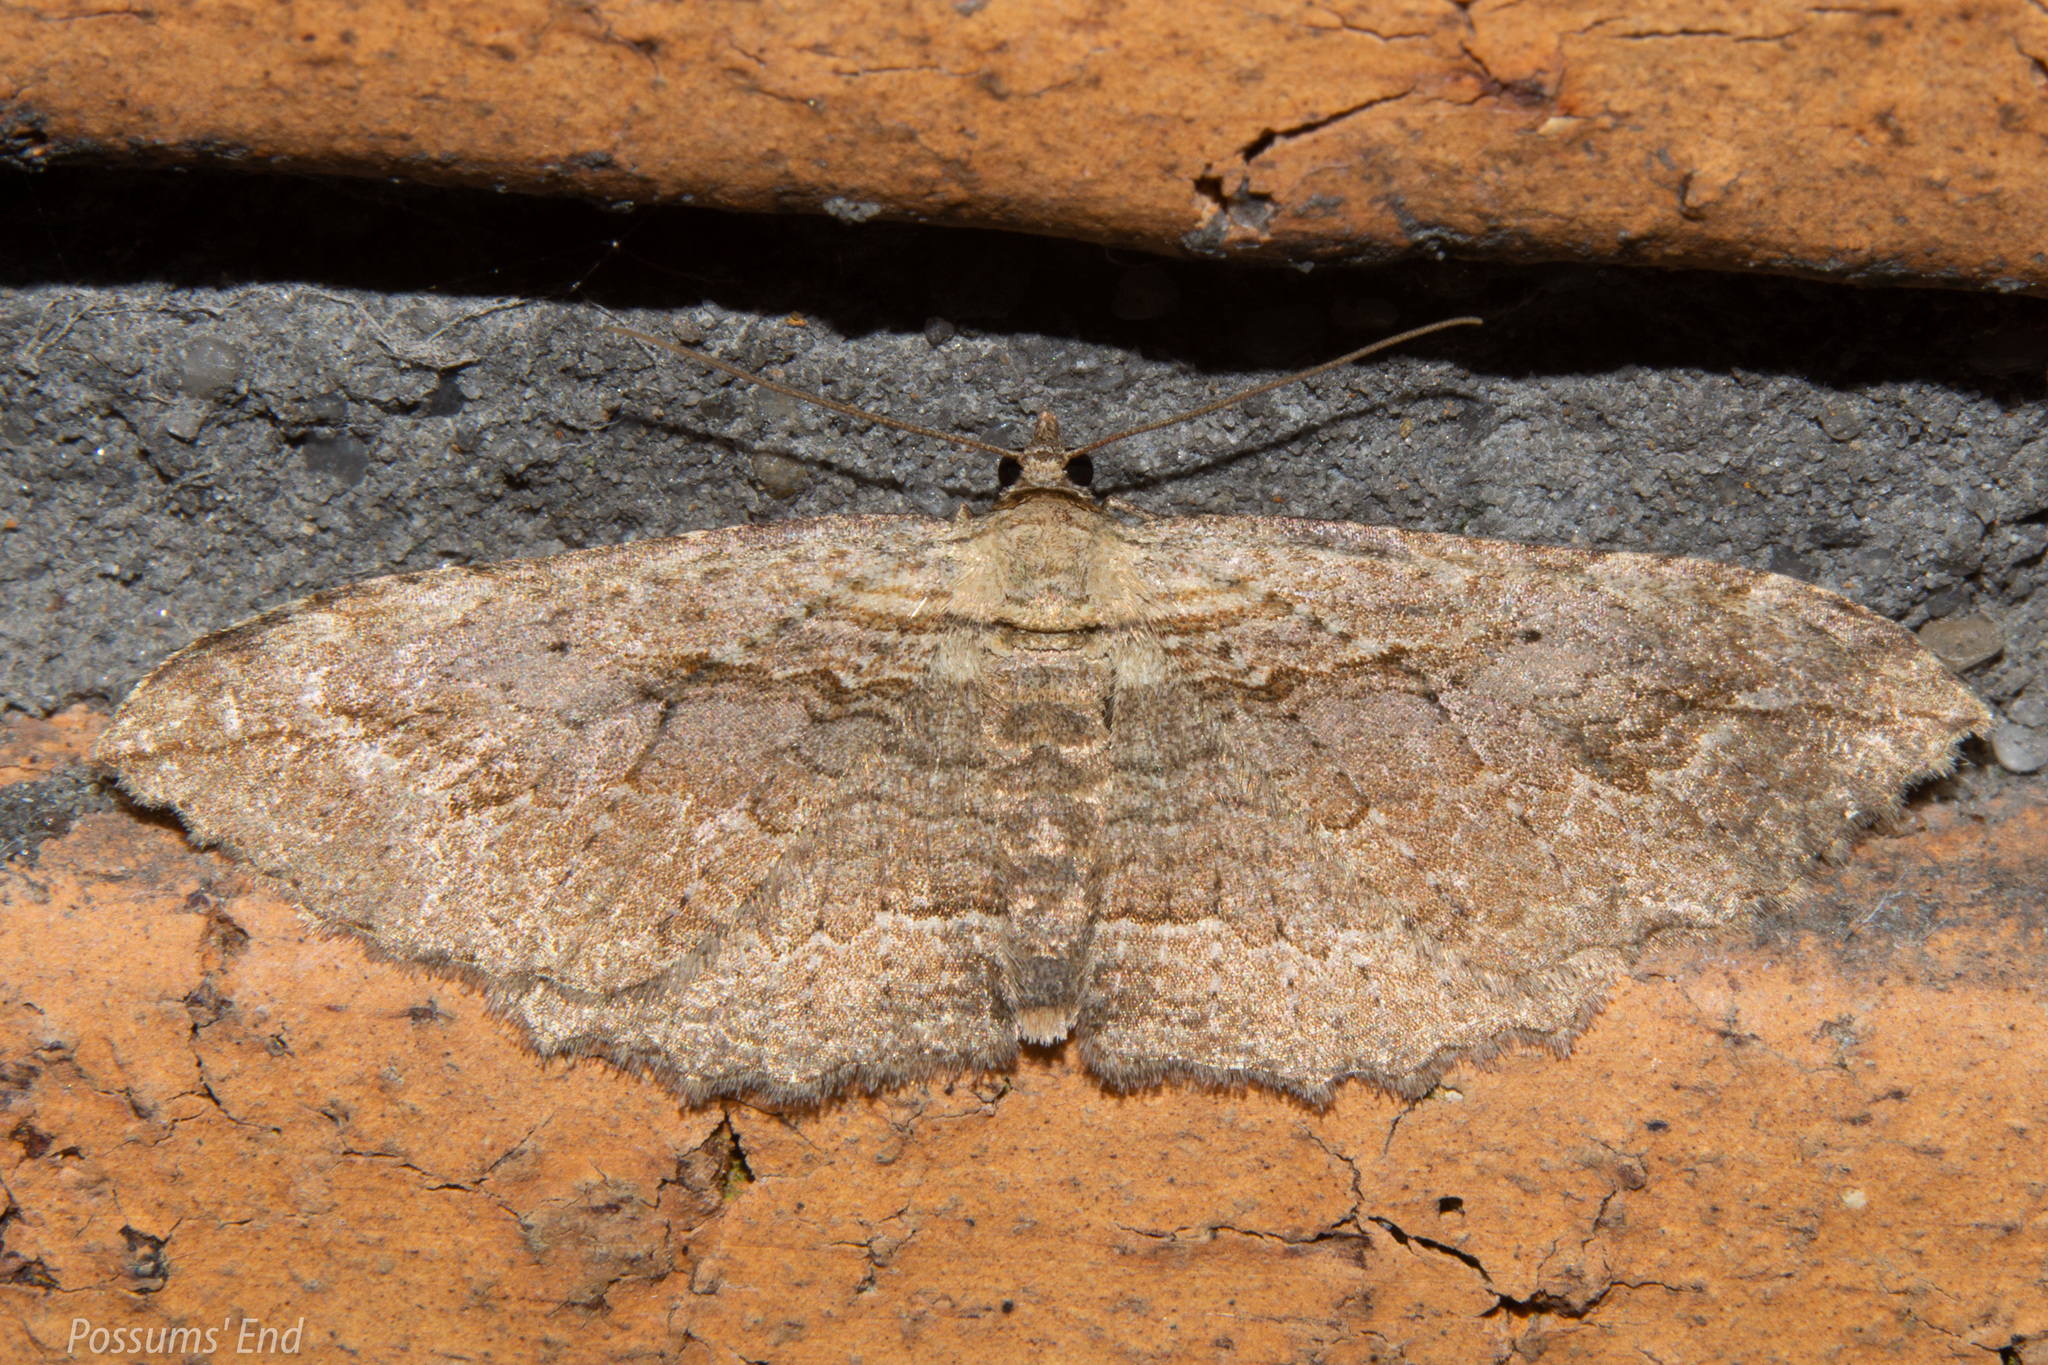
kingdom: Animalia
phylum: Arthropoda
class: Insecta
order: Lepidoptera
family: Geometridae
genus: Austrocidaria
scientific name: Austrocidaria bipartita
